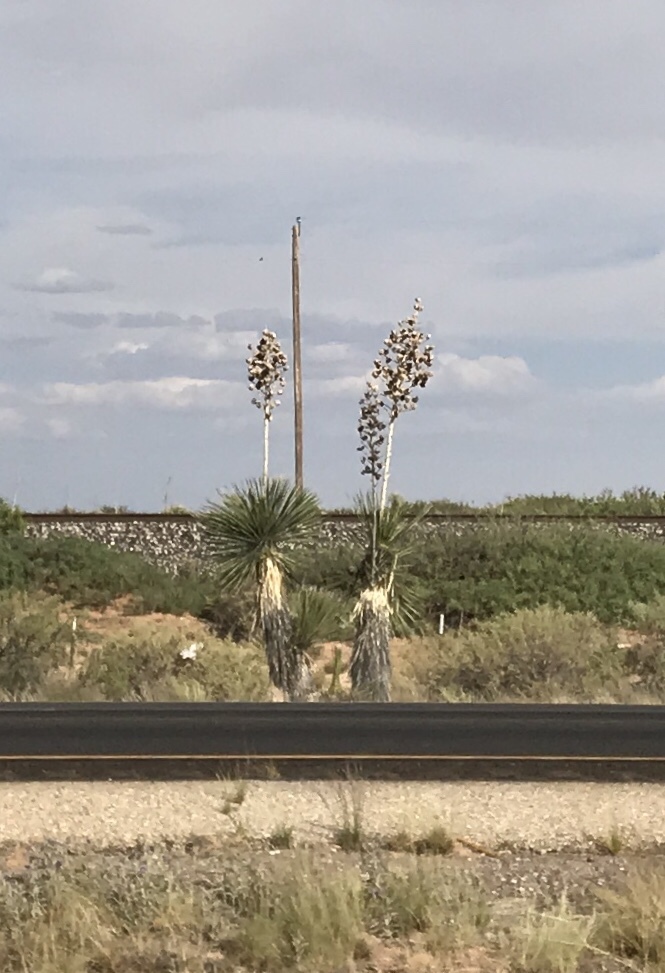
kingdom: Plantae
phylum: Tracheophyta
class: Liliopsida
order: Asparagales
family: Asparagaceae
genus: Yucca
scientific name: Yucca elata
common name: Palmella
